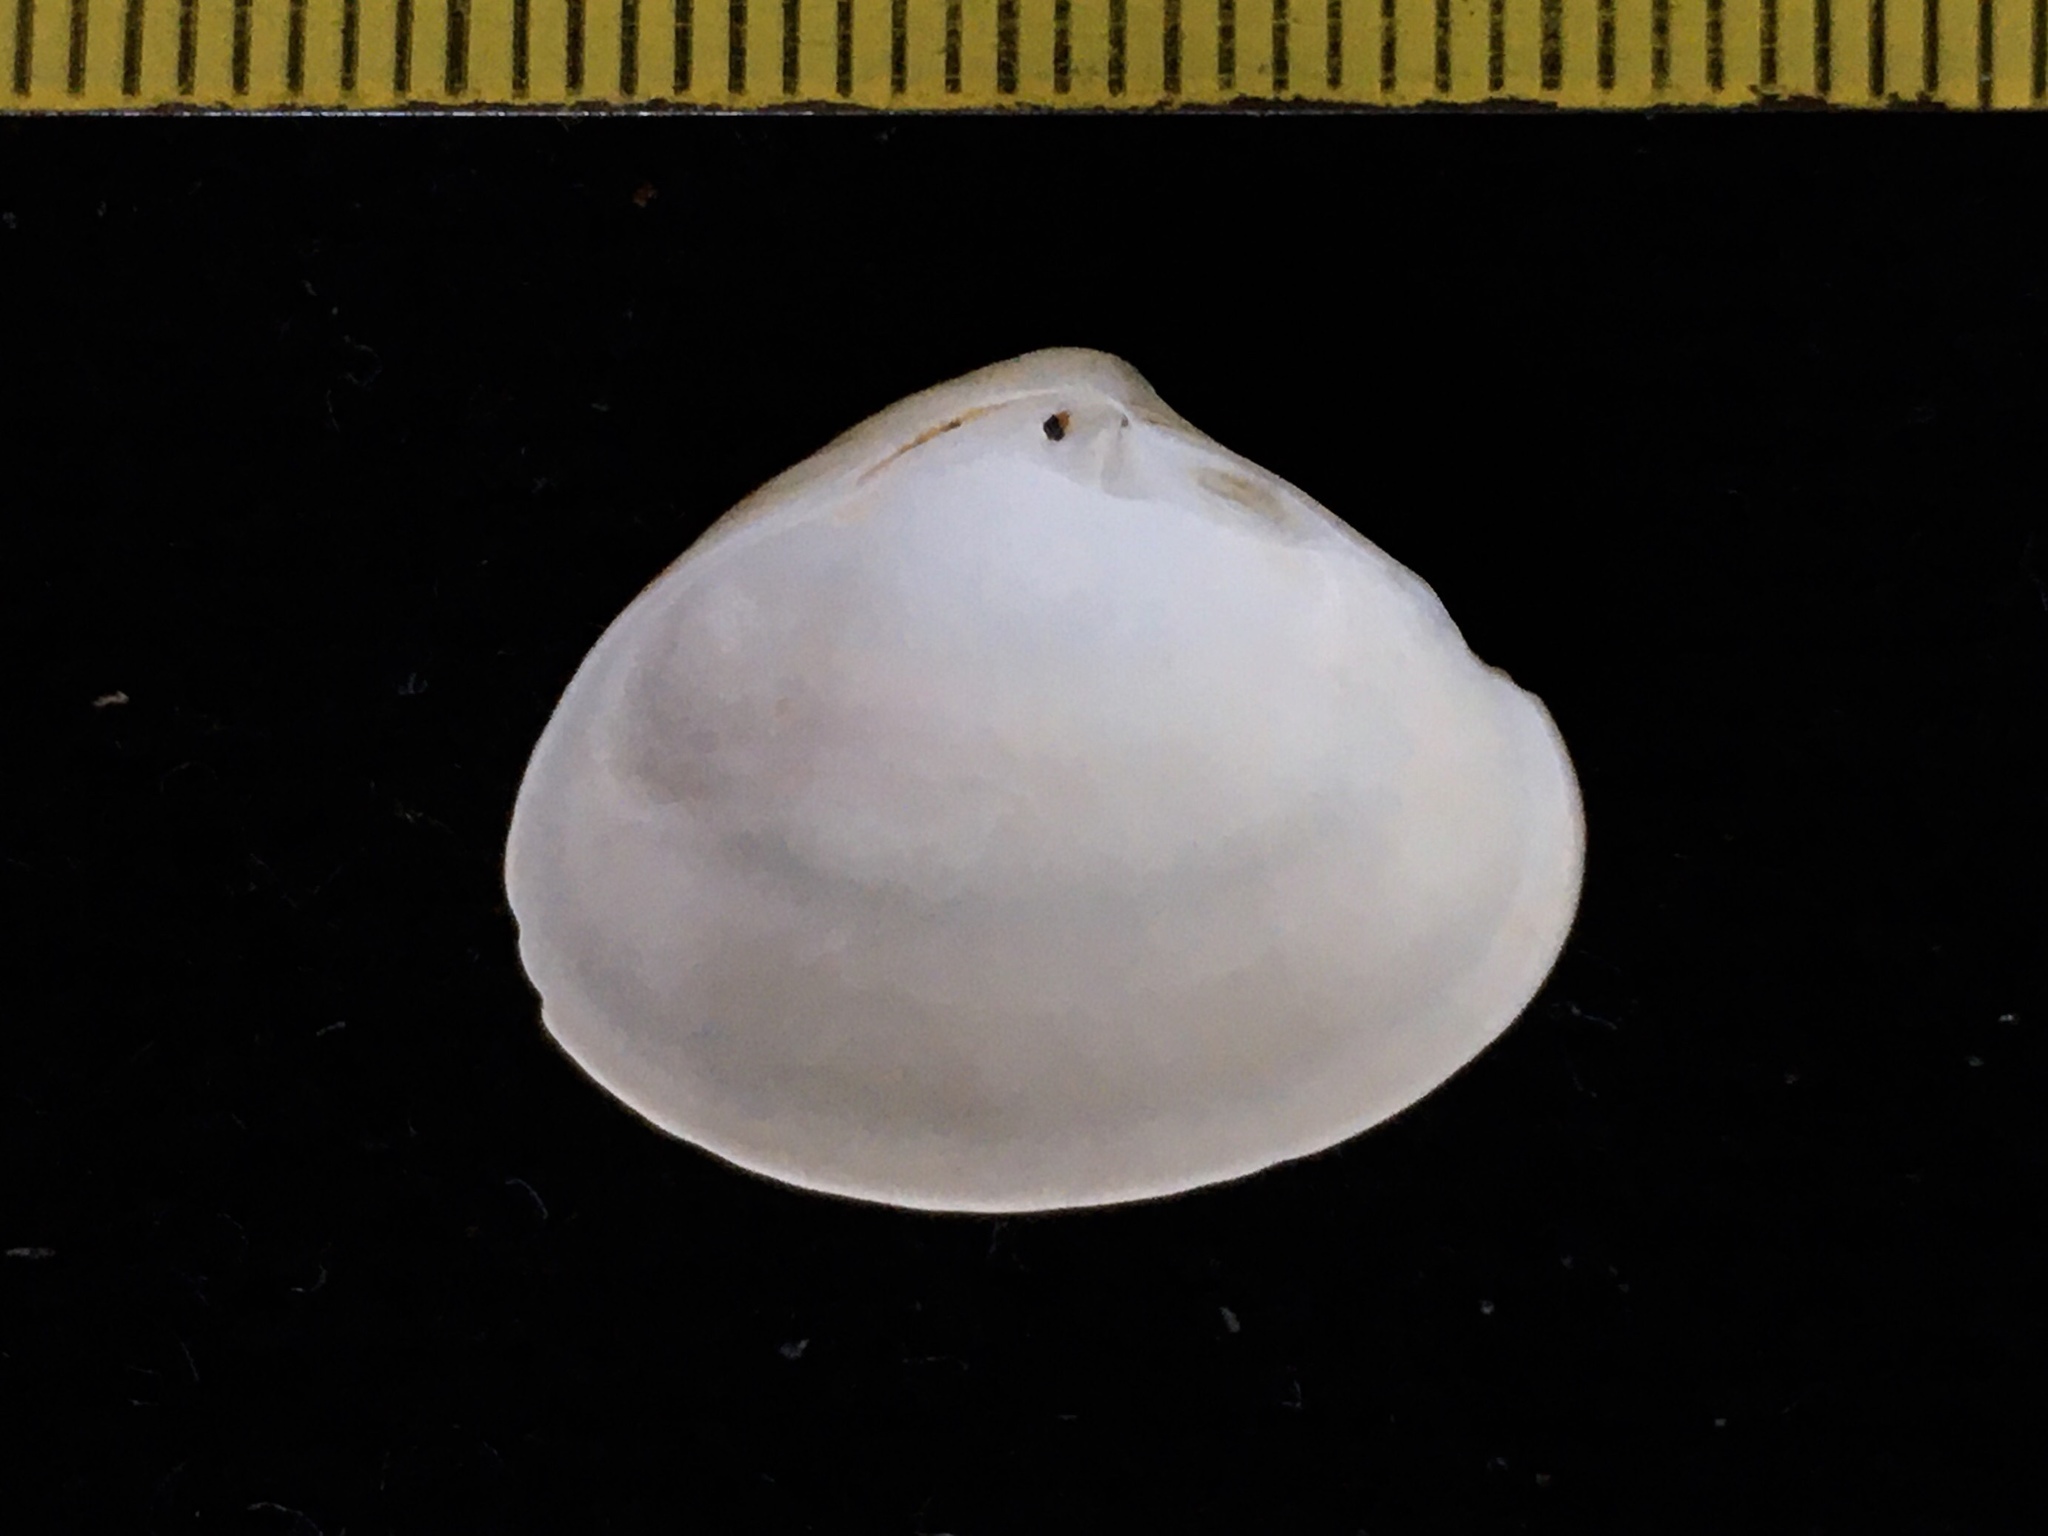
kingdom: Animalia
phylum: Mollusca
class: Bivalvia
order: Venerida
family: Veneridae
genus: Transenpitar
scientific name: Transenpitar americana
